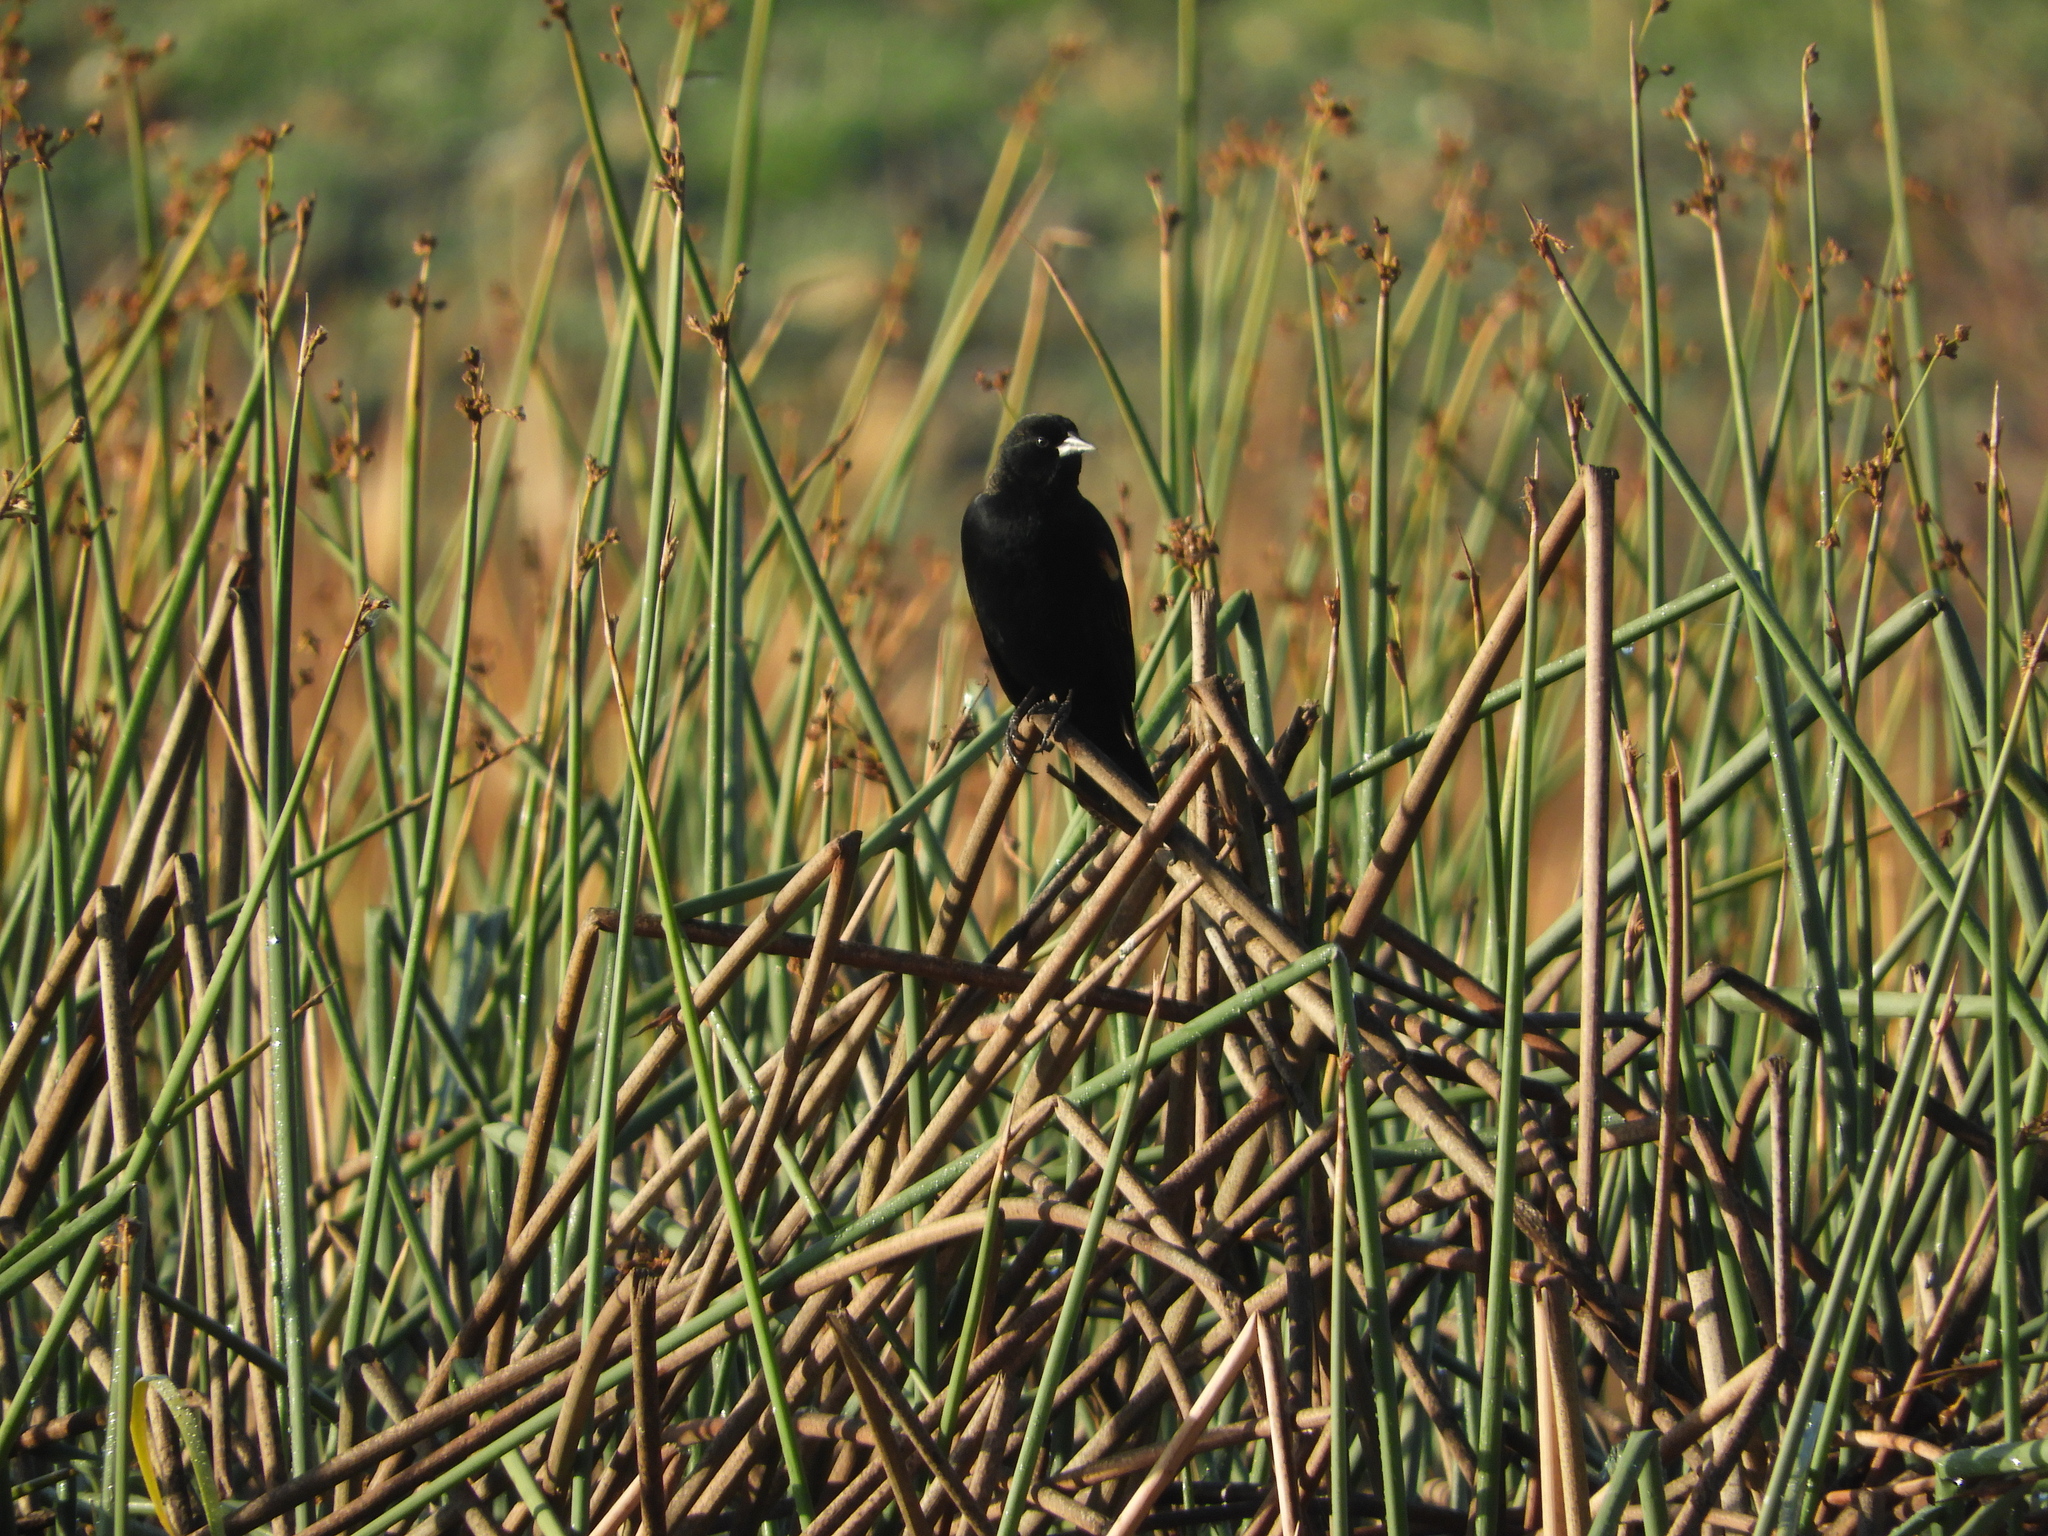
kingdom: Animalia
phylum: Chordata
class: Aves
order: Passeriformes
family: Icteridae
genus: Agelaius
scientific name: Agelaius phoeniceus
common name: Red-winged blackbird
